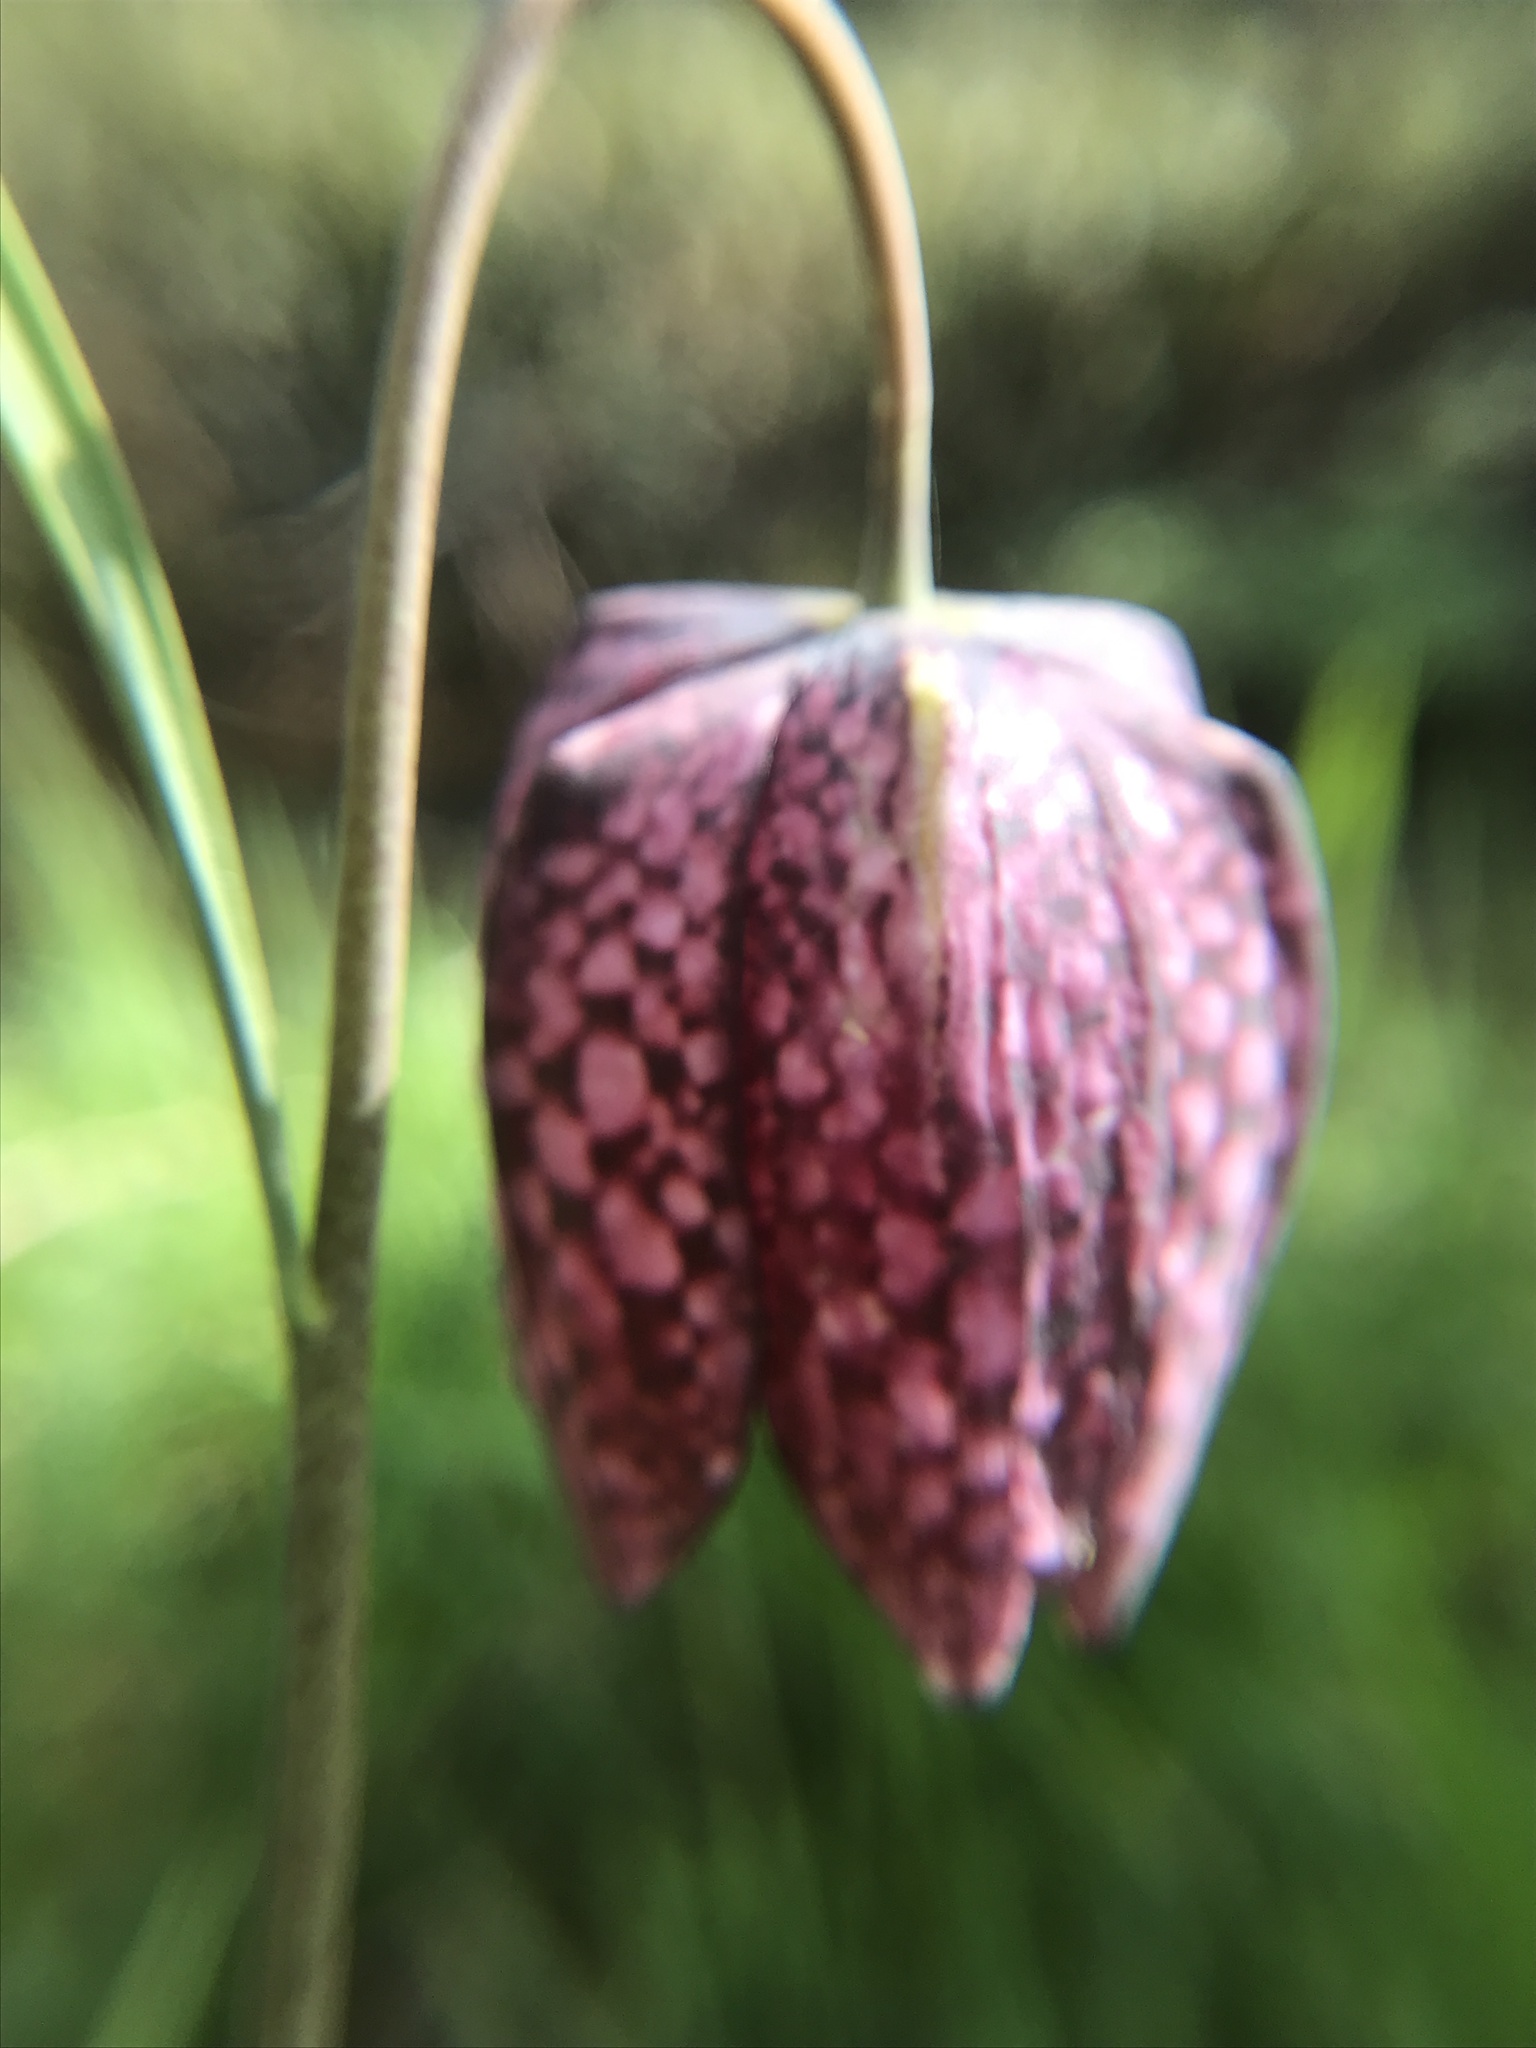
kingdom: Plantae
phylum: Tracheophyta
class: Liliopsida
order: Liliales
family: Liliaceae
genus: Fritillaria
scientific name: Fritillaria meleagris
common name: Fritillary
